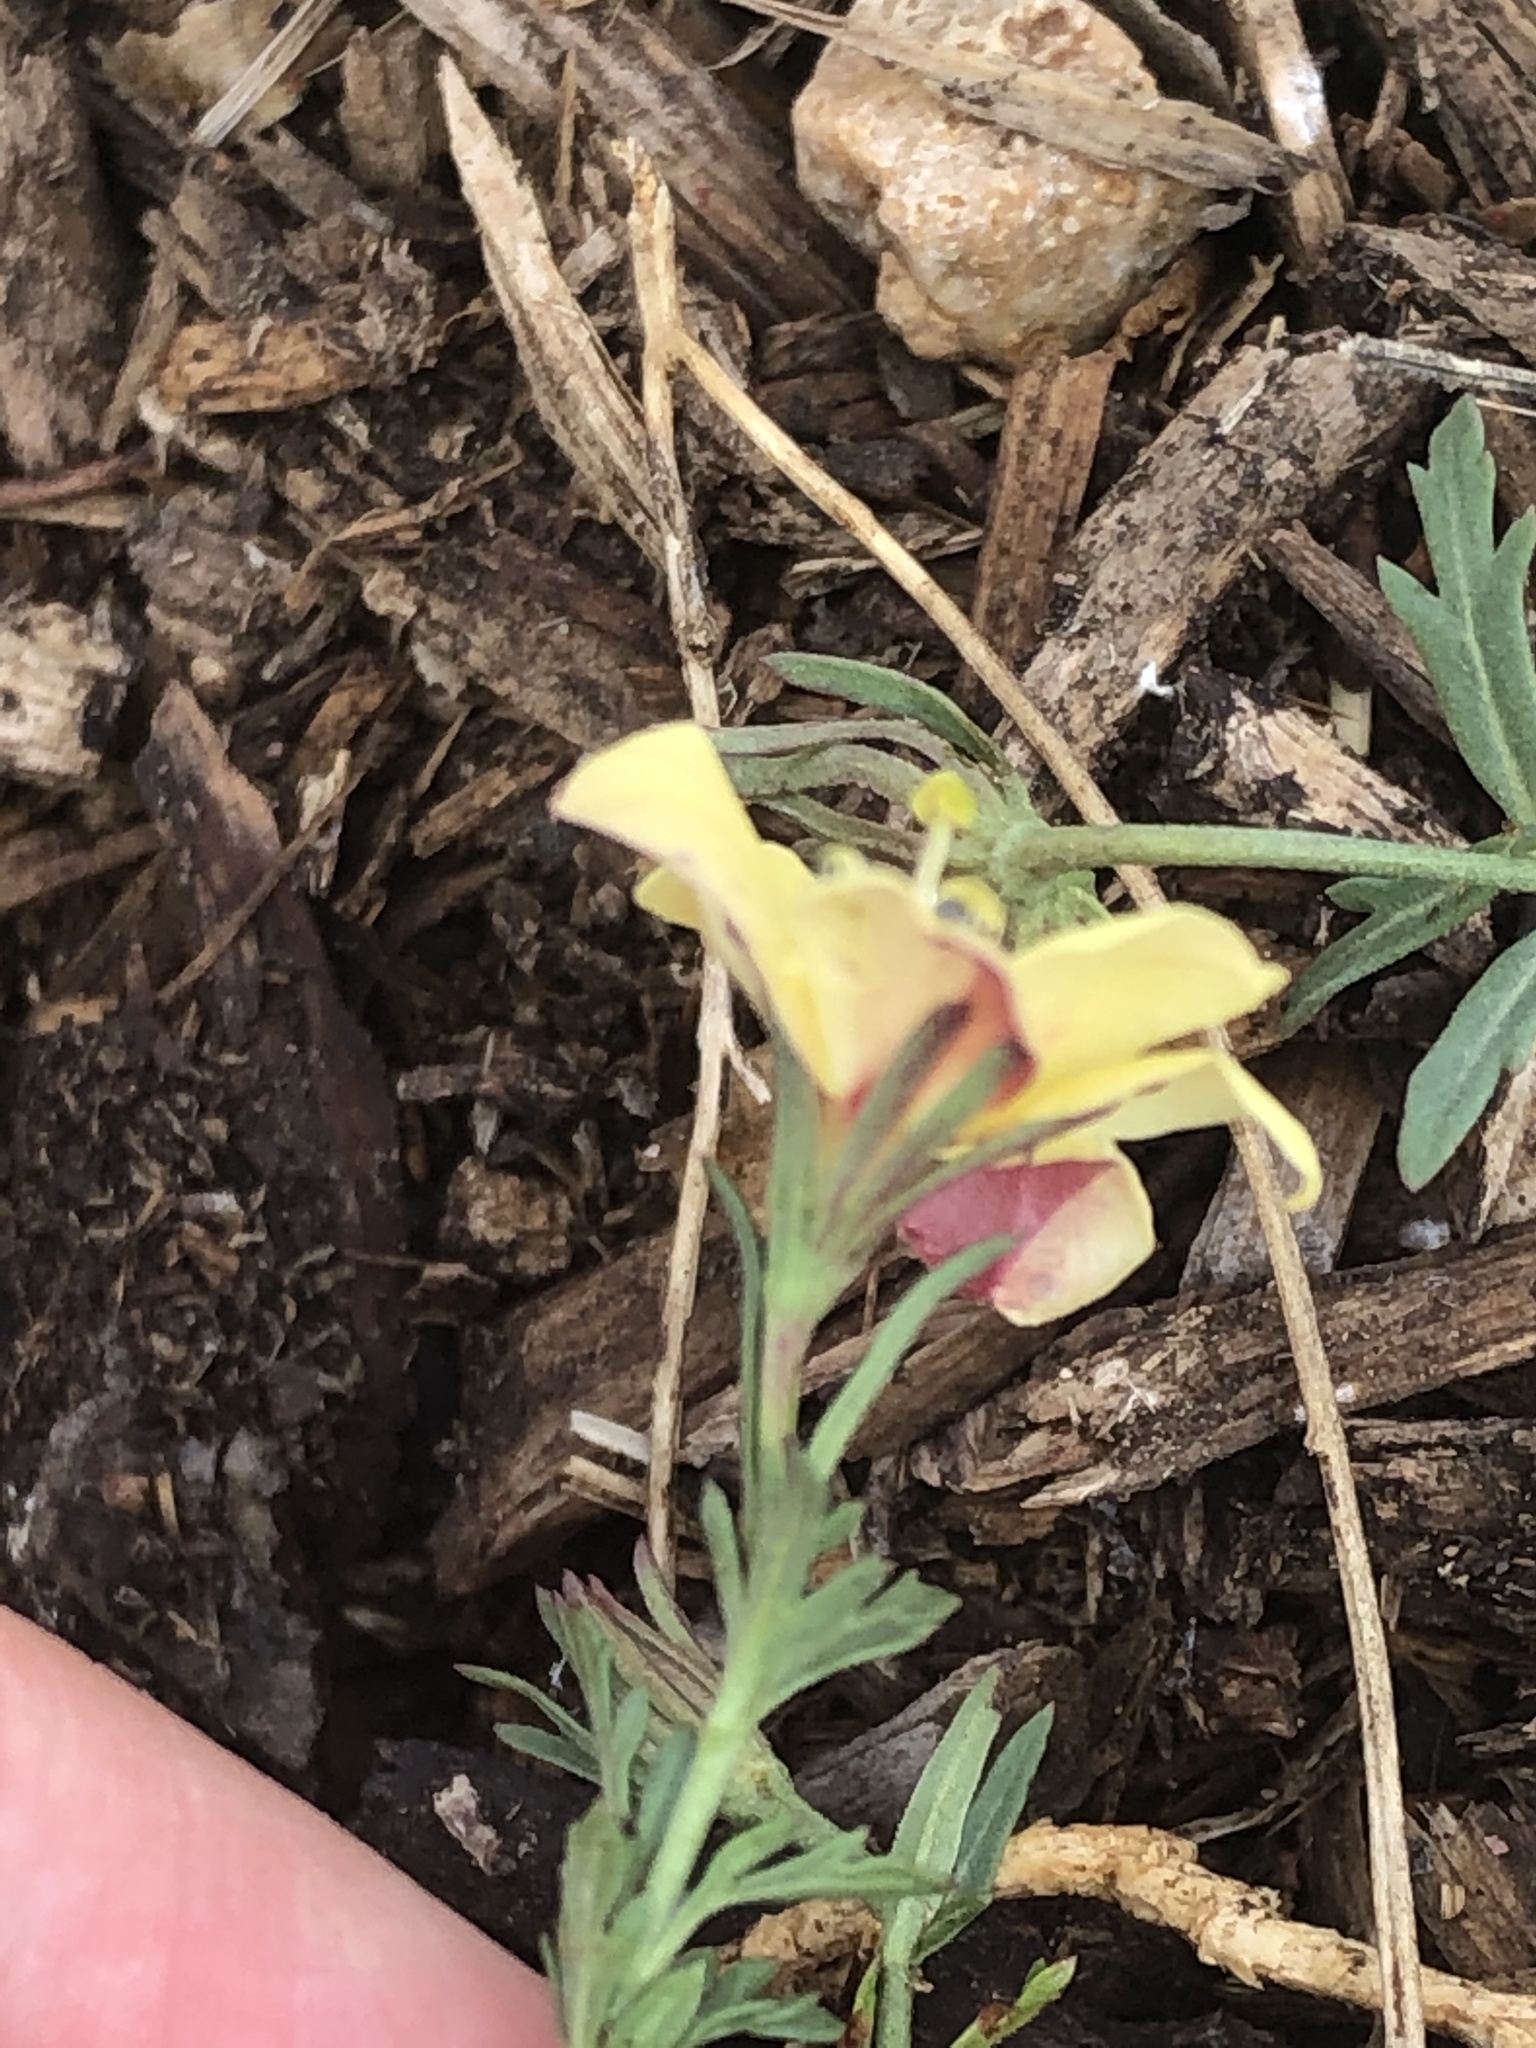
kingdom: Plantae
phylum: Tracheophyta
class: Magnoliopsida
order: Lamiales
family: Oleaceae
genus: Menodora
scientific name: Menodora heterophylla
